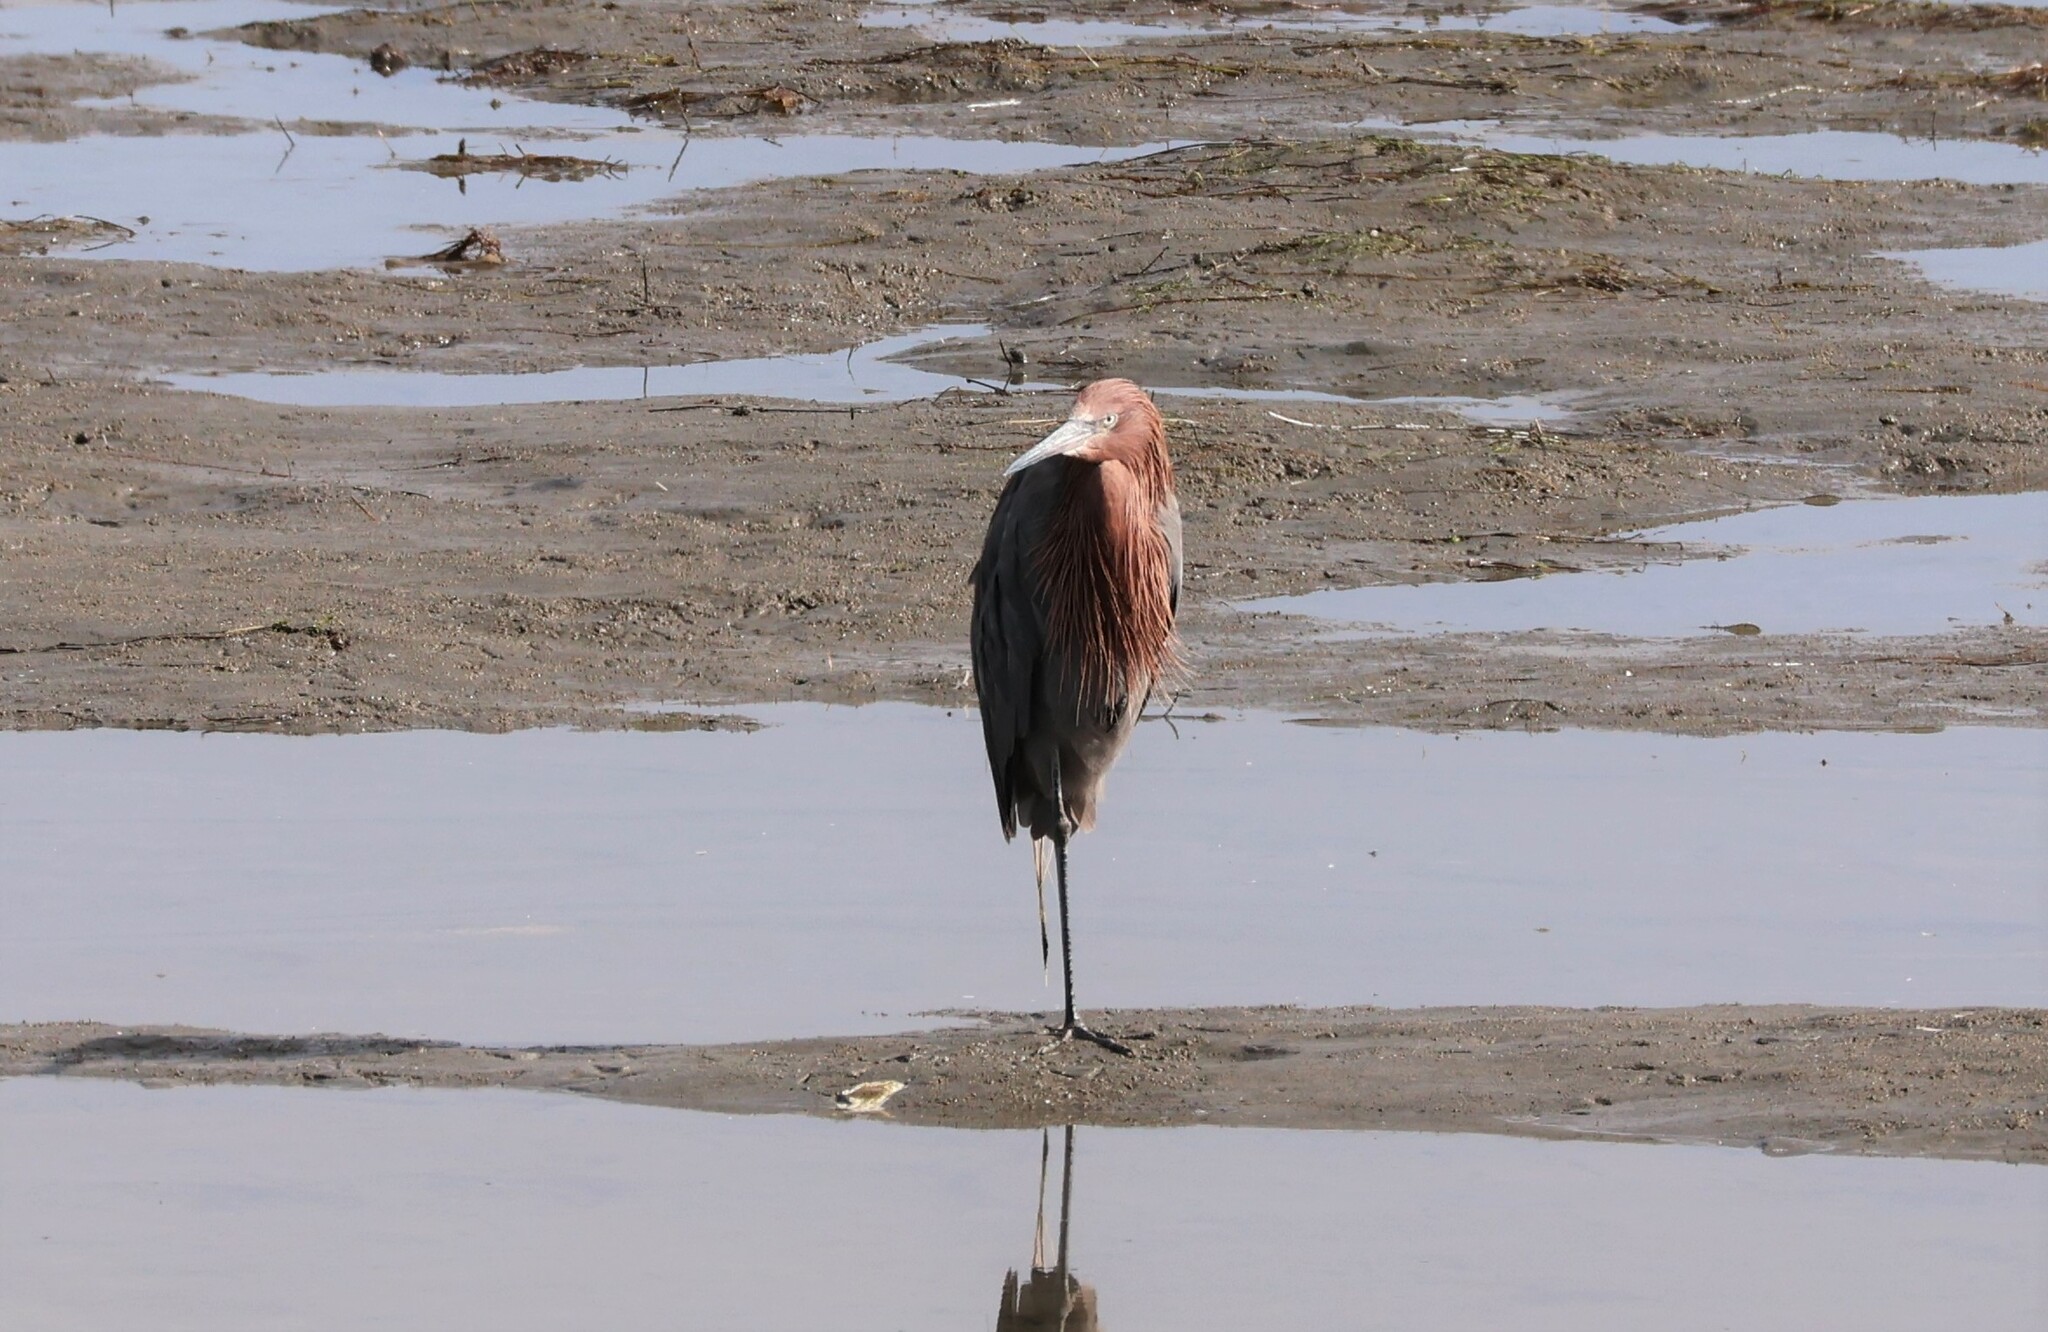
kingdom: Animalia
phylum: Chordata
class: Aves
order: Pelecaniformes
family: Ardeidae
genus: Egretta
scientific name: Egretta rufescens
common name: Reddish egret
